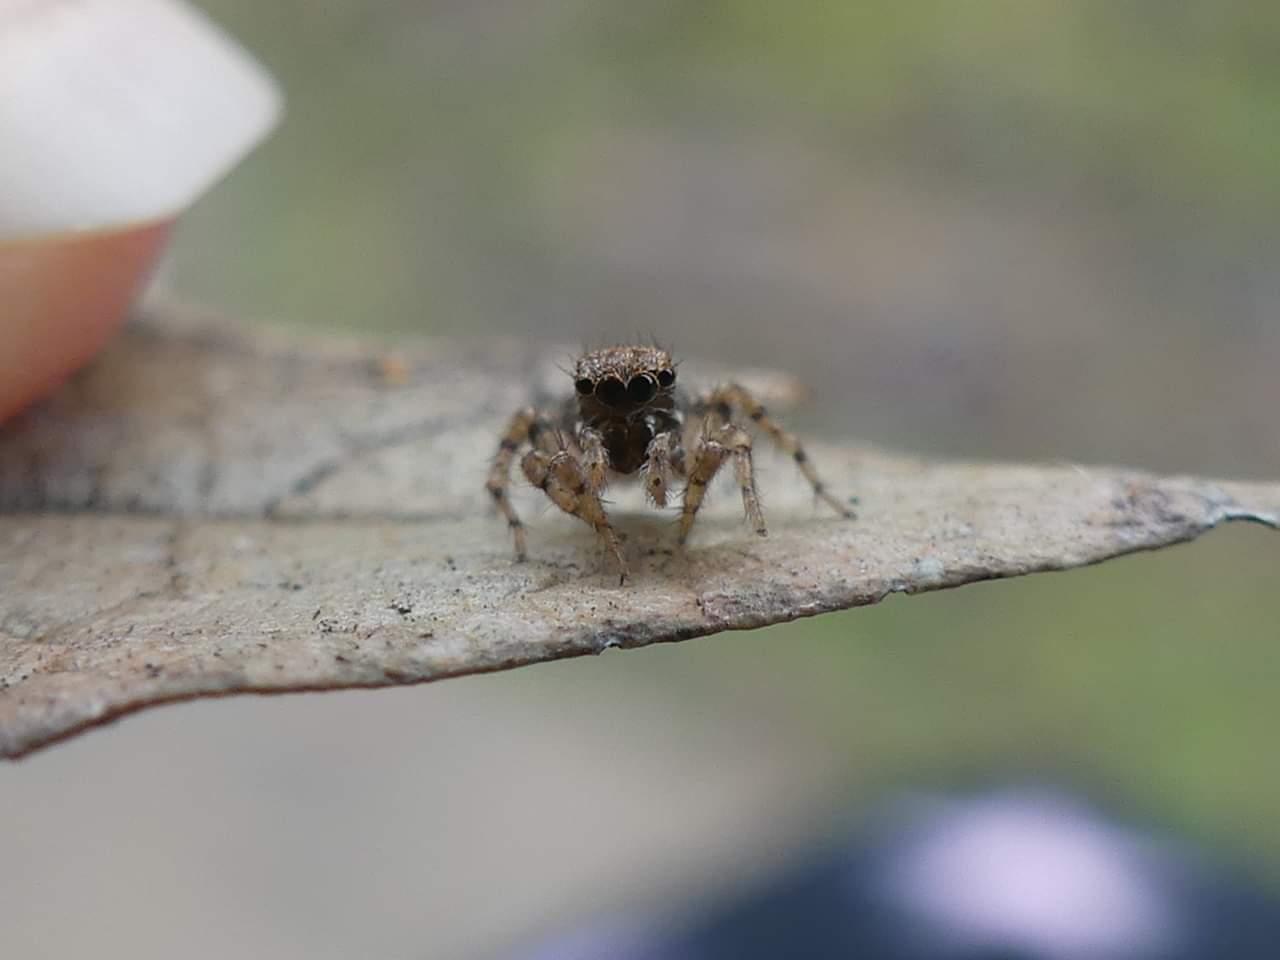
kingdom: Animalia
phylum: Arthropoda
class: Arachnida
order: Araneae
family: Salticidae
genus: Naphrys
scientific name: Naphrys acerba
